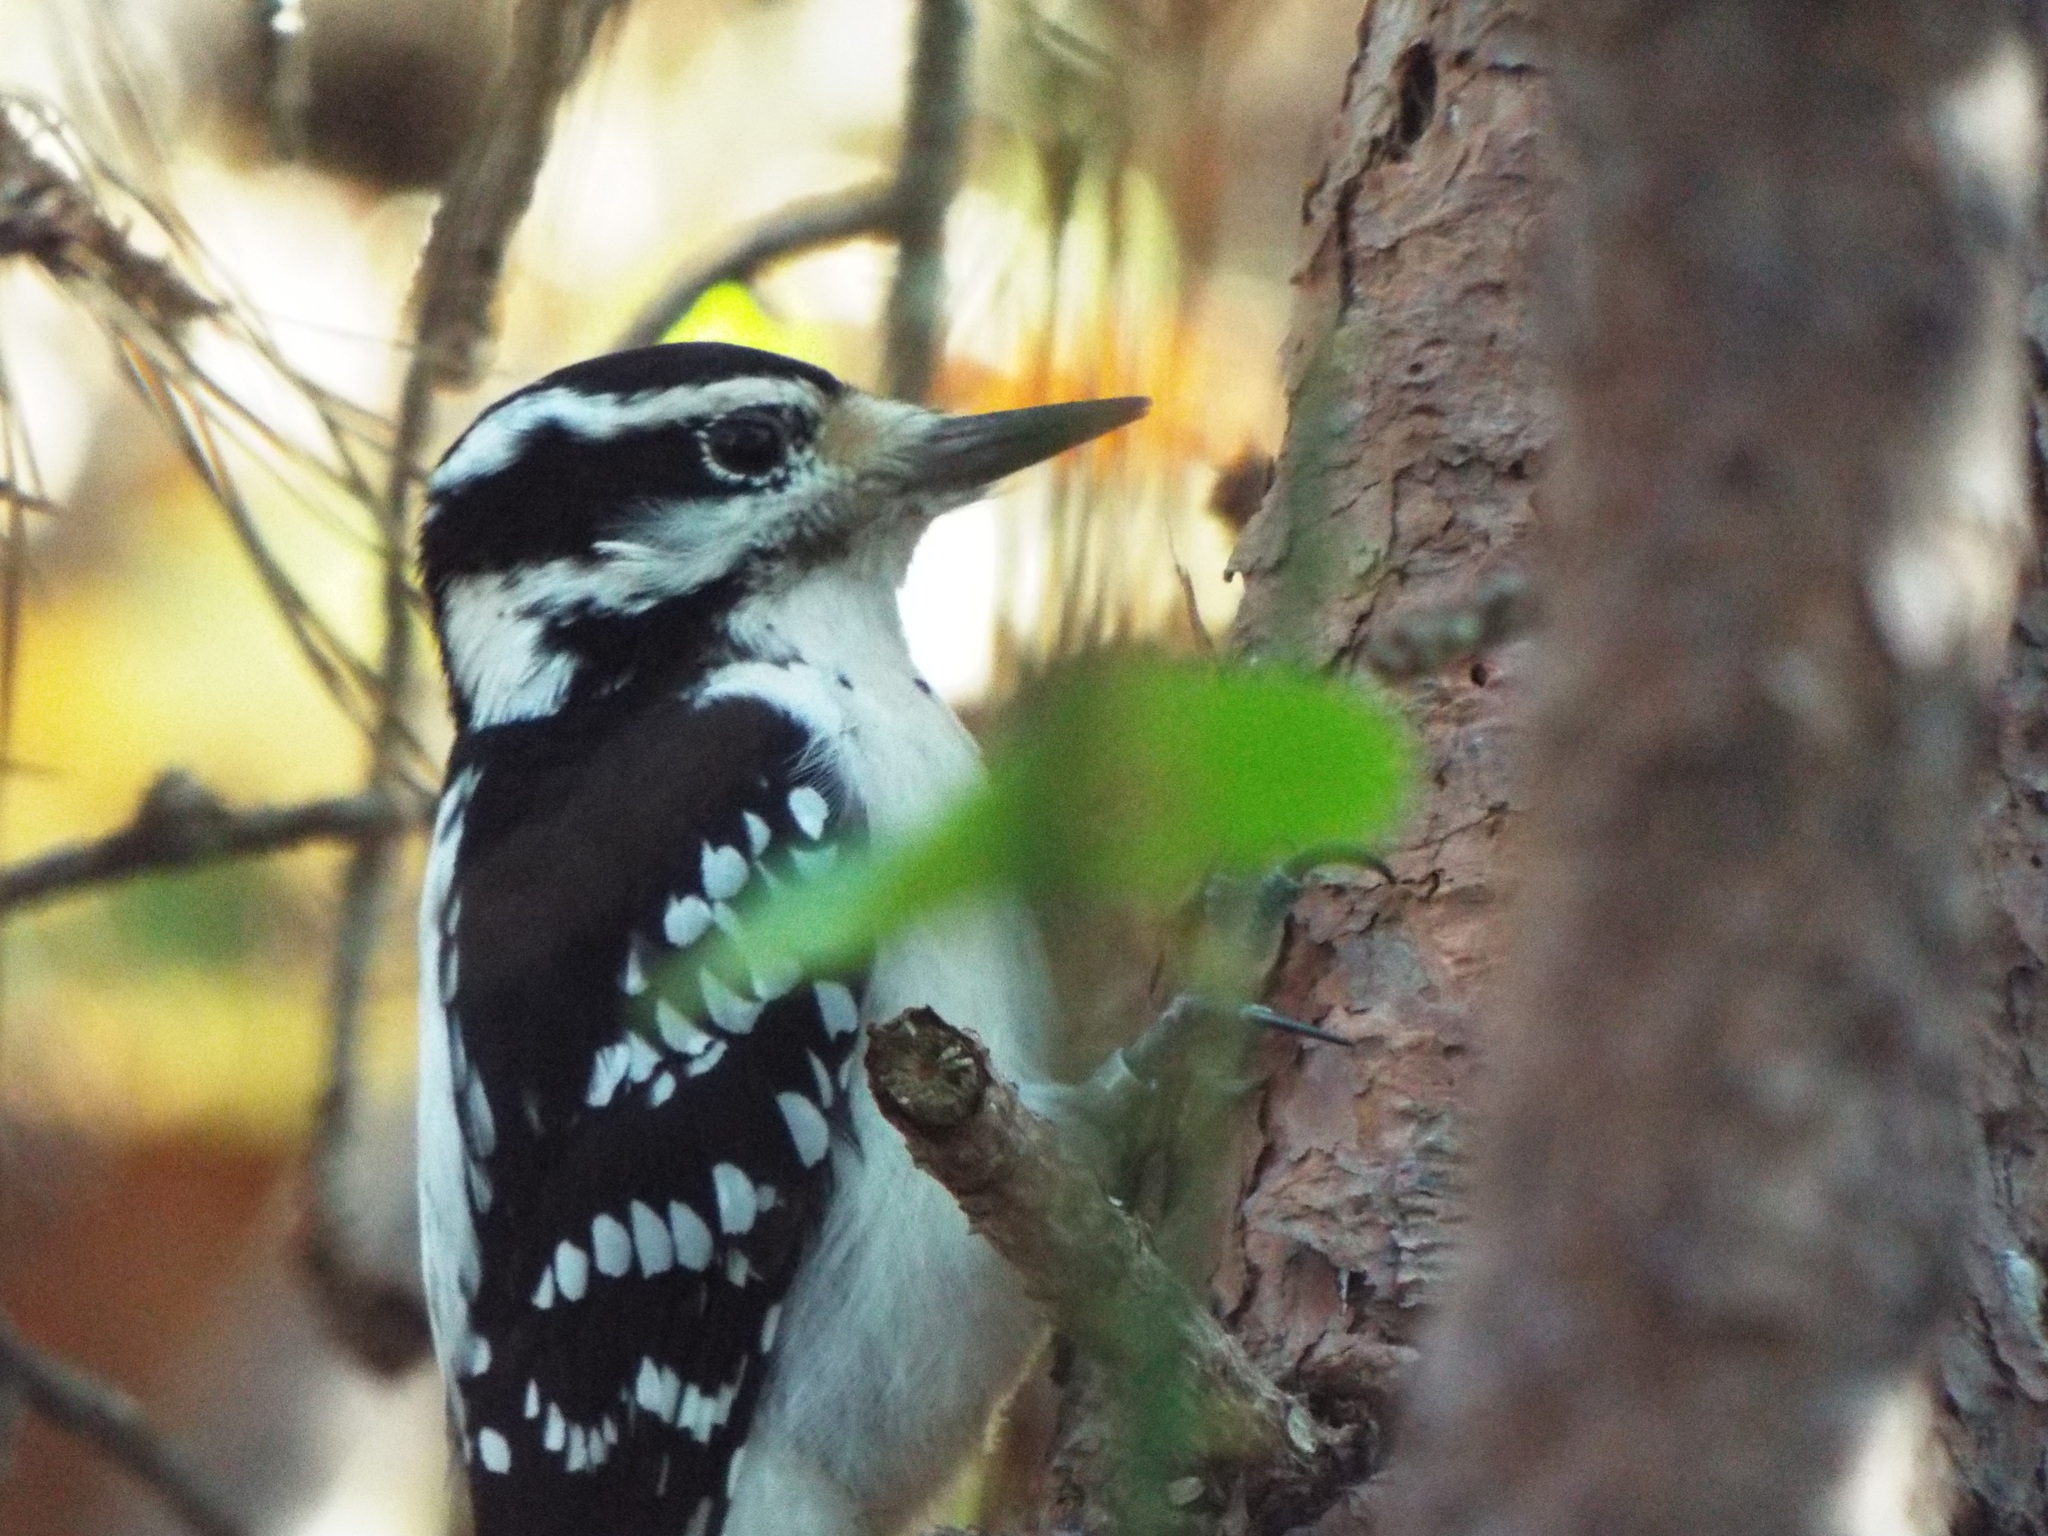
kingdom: Animalia
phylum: Chordata
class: Aves
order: Piciformes
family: Picidae
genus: Leuconotopicus
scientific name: Leuconotopicus villosus
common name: Hairy woodpecker
